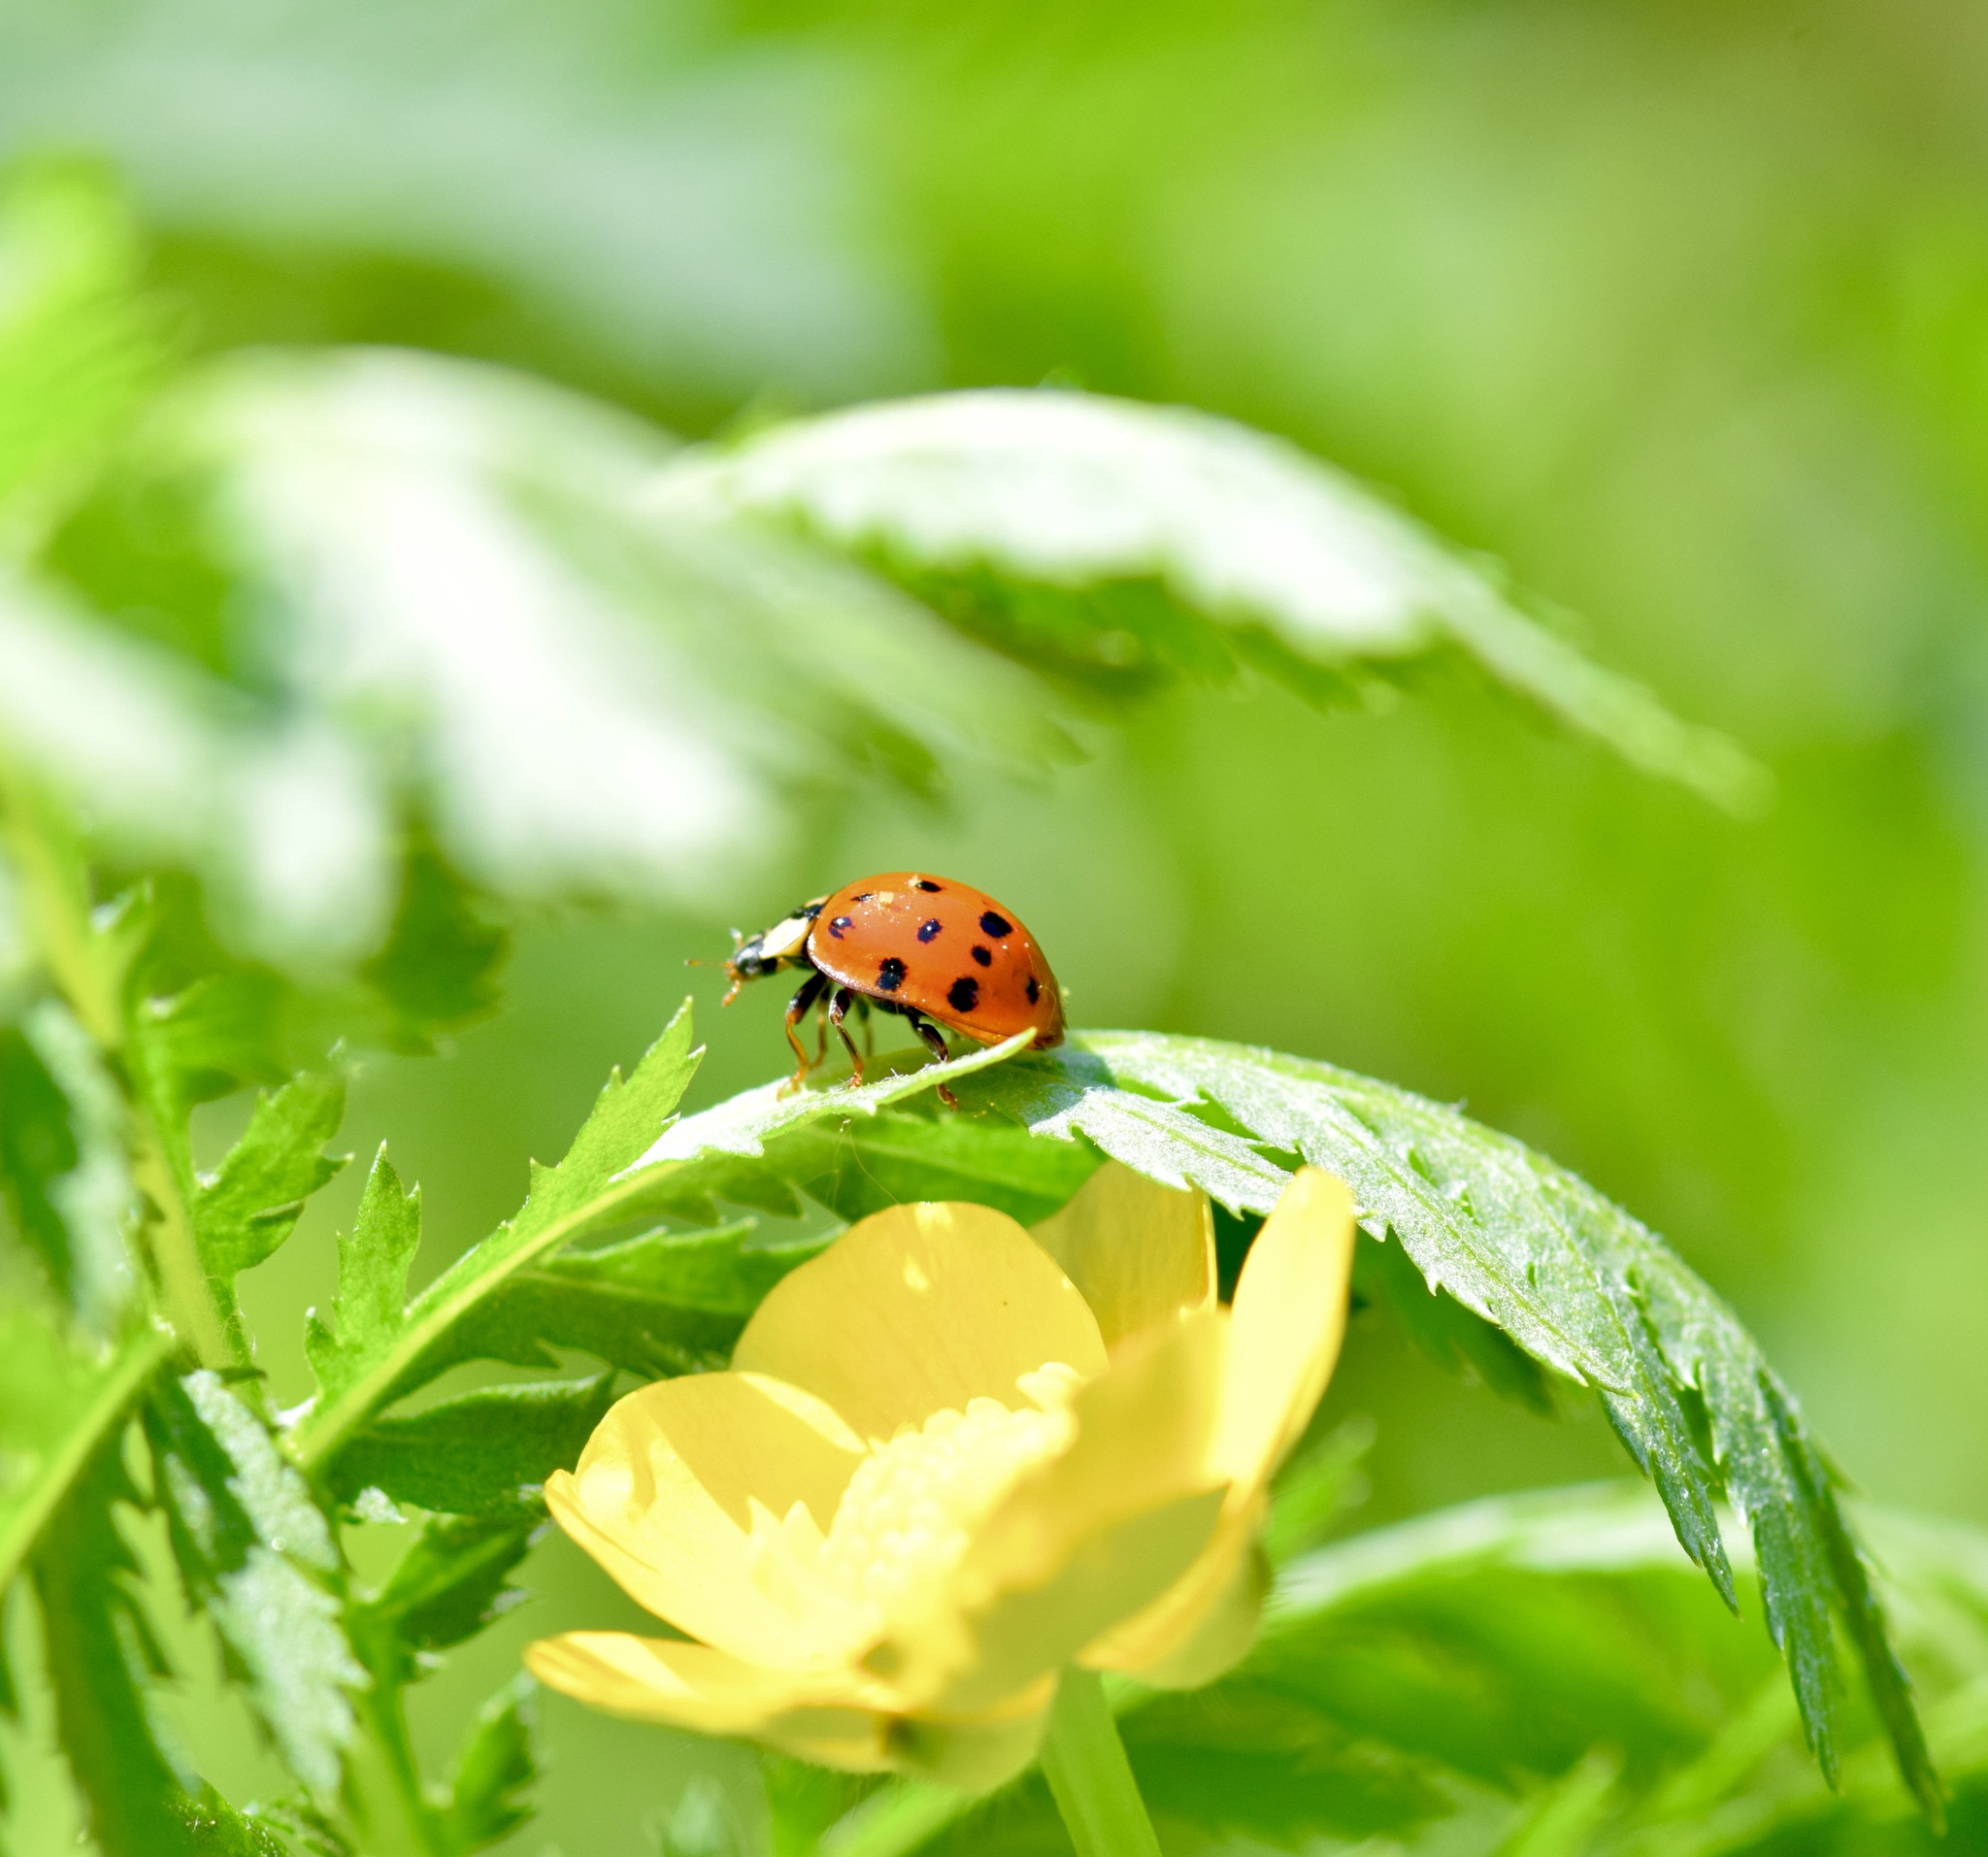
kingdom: Animalia
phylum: Arthropoda
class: Insecta
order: Coleoptera
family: Coccinellidae
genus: Harmonia
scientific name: Harmonia axyridis
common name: Harlequin ladybird
